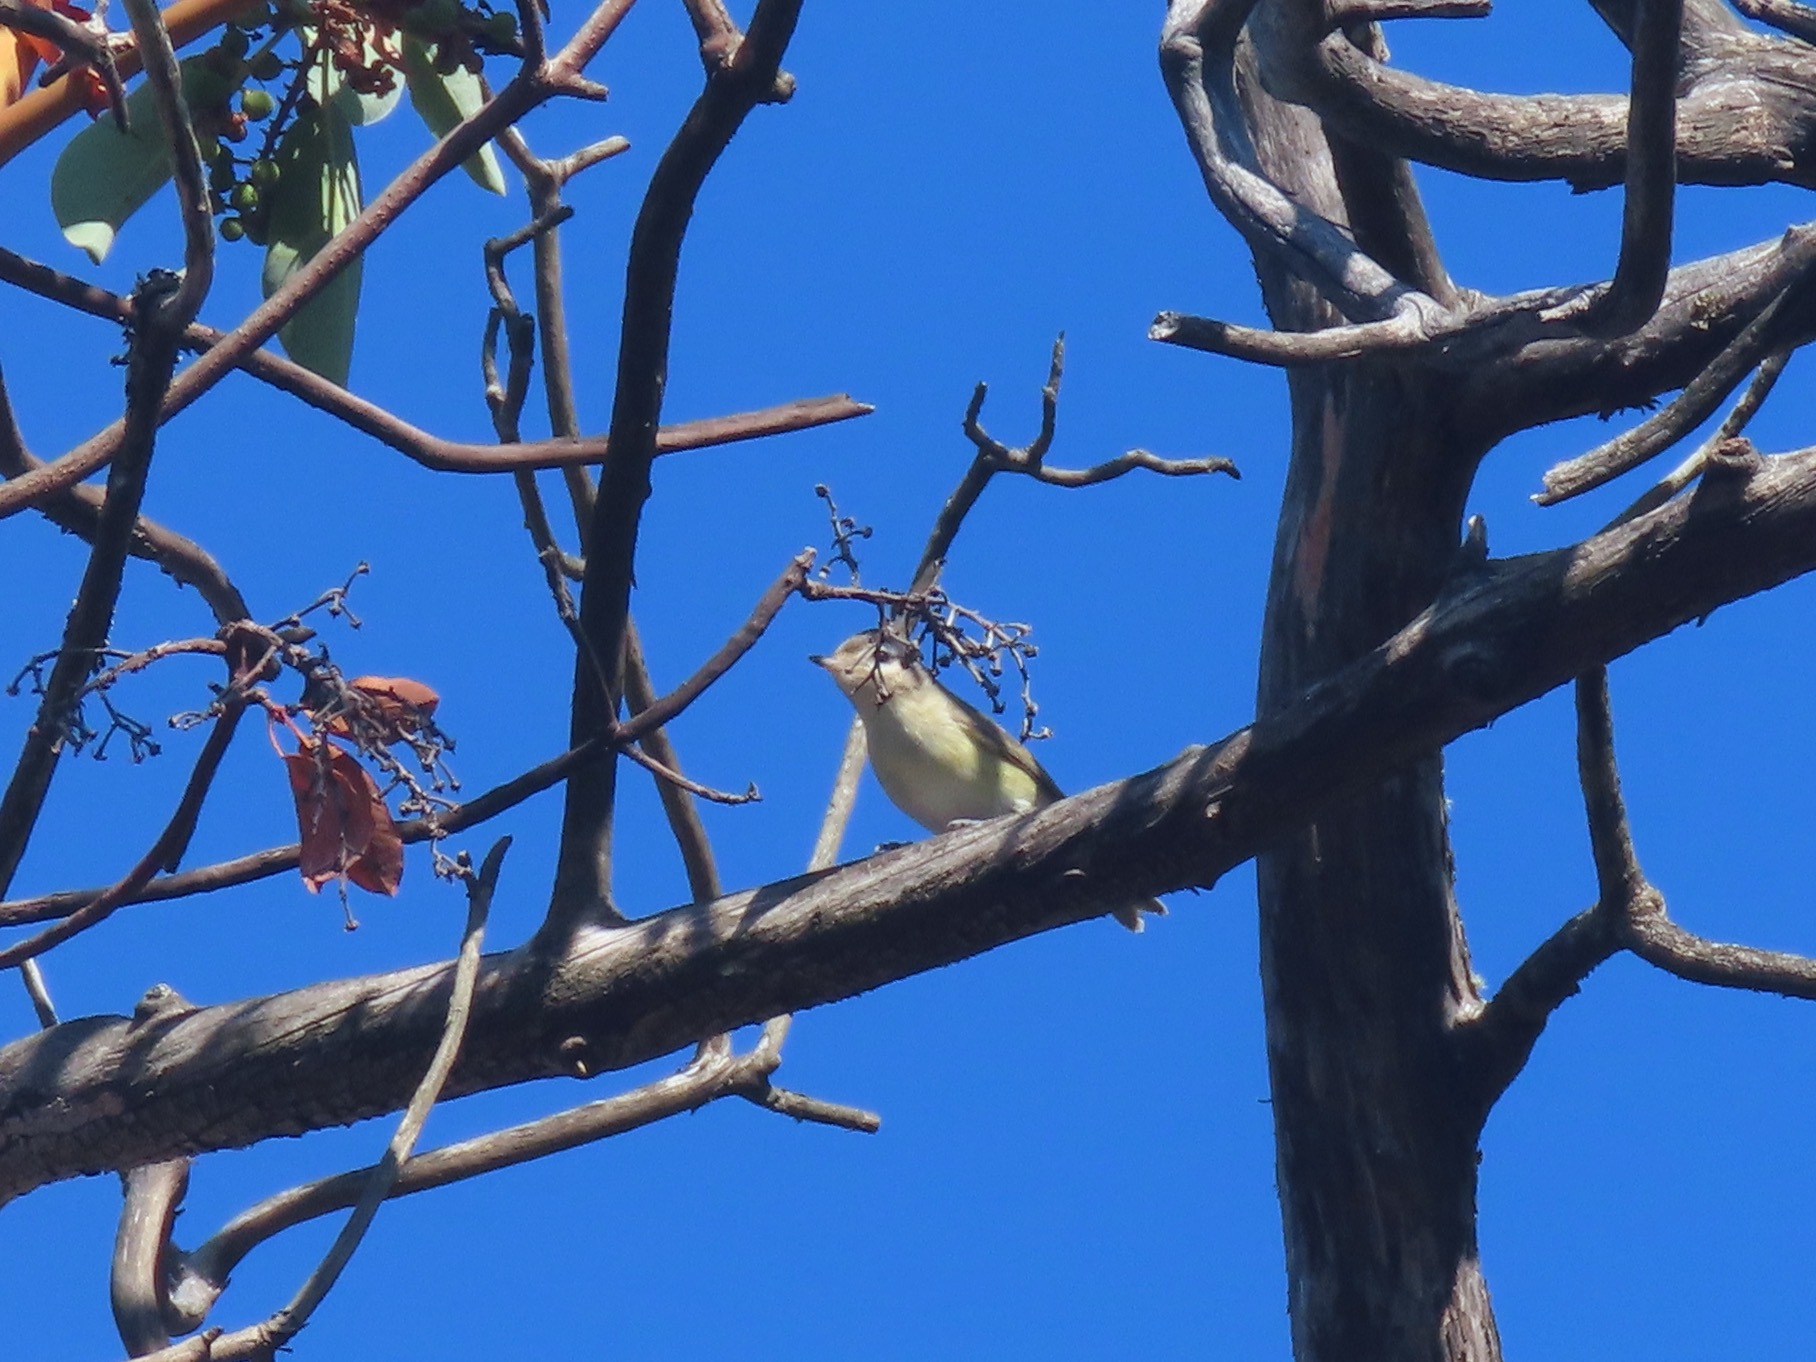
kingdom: Animalia
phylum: Chordata
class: Aves
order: Passeriformes
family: Vireonidae
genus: Vireo
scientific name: Vireo gilvus
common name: Warbling vireo
